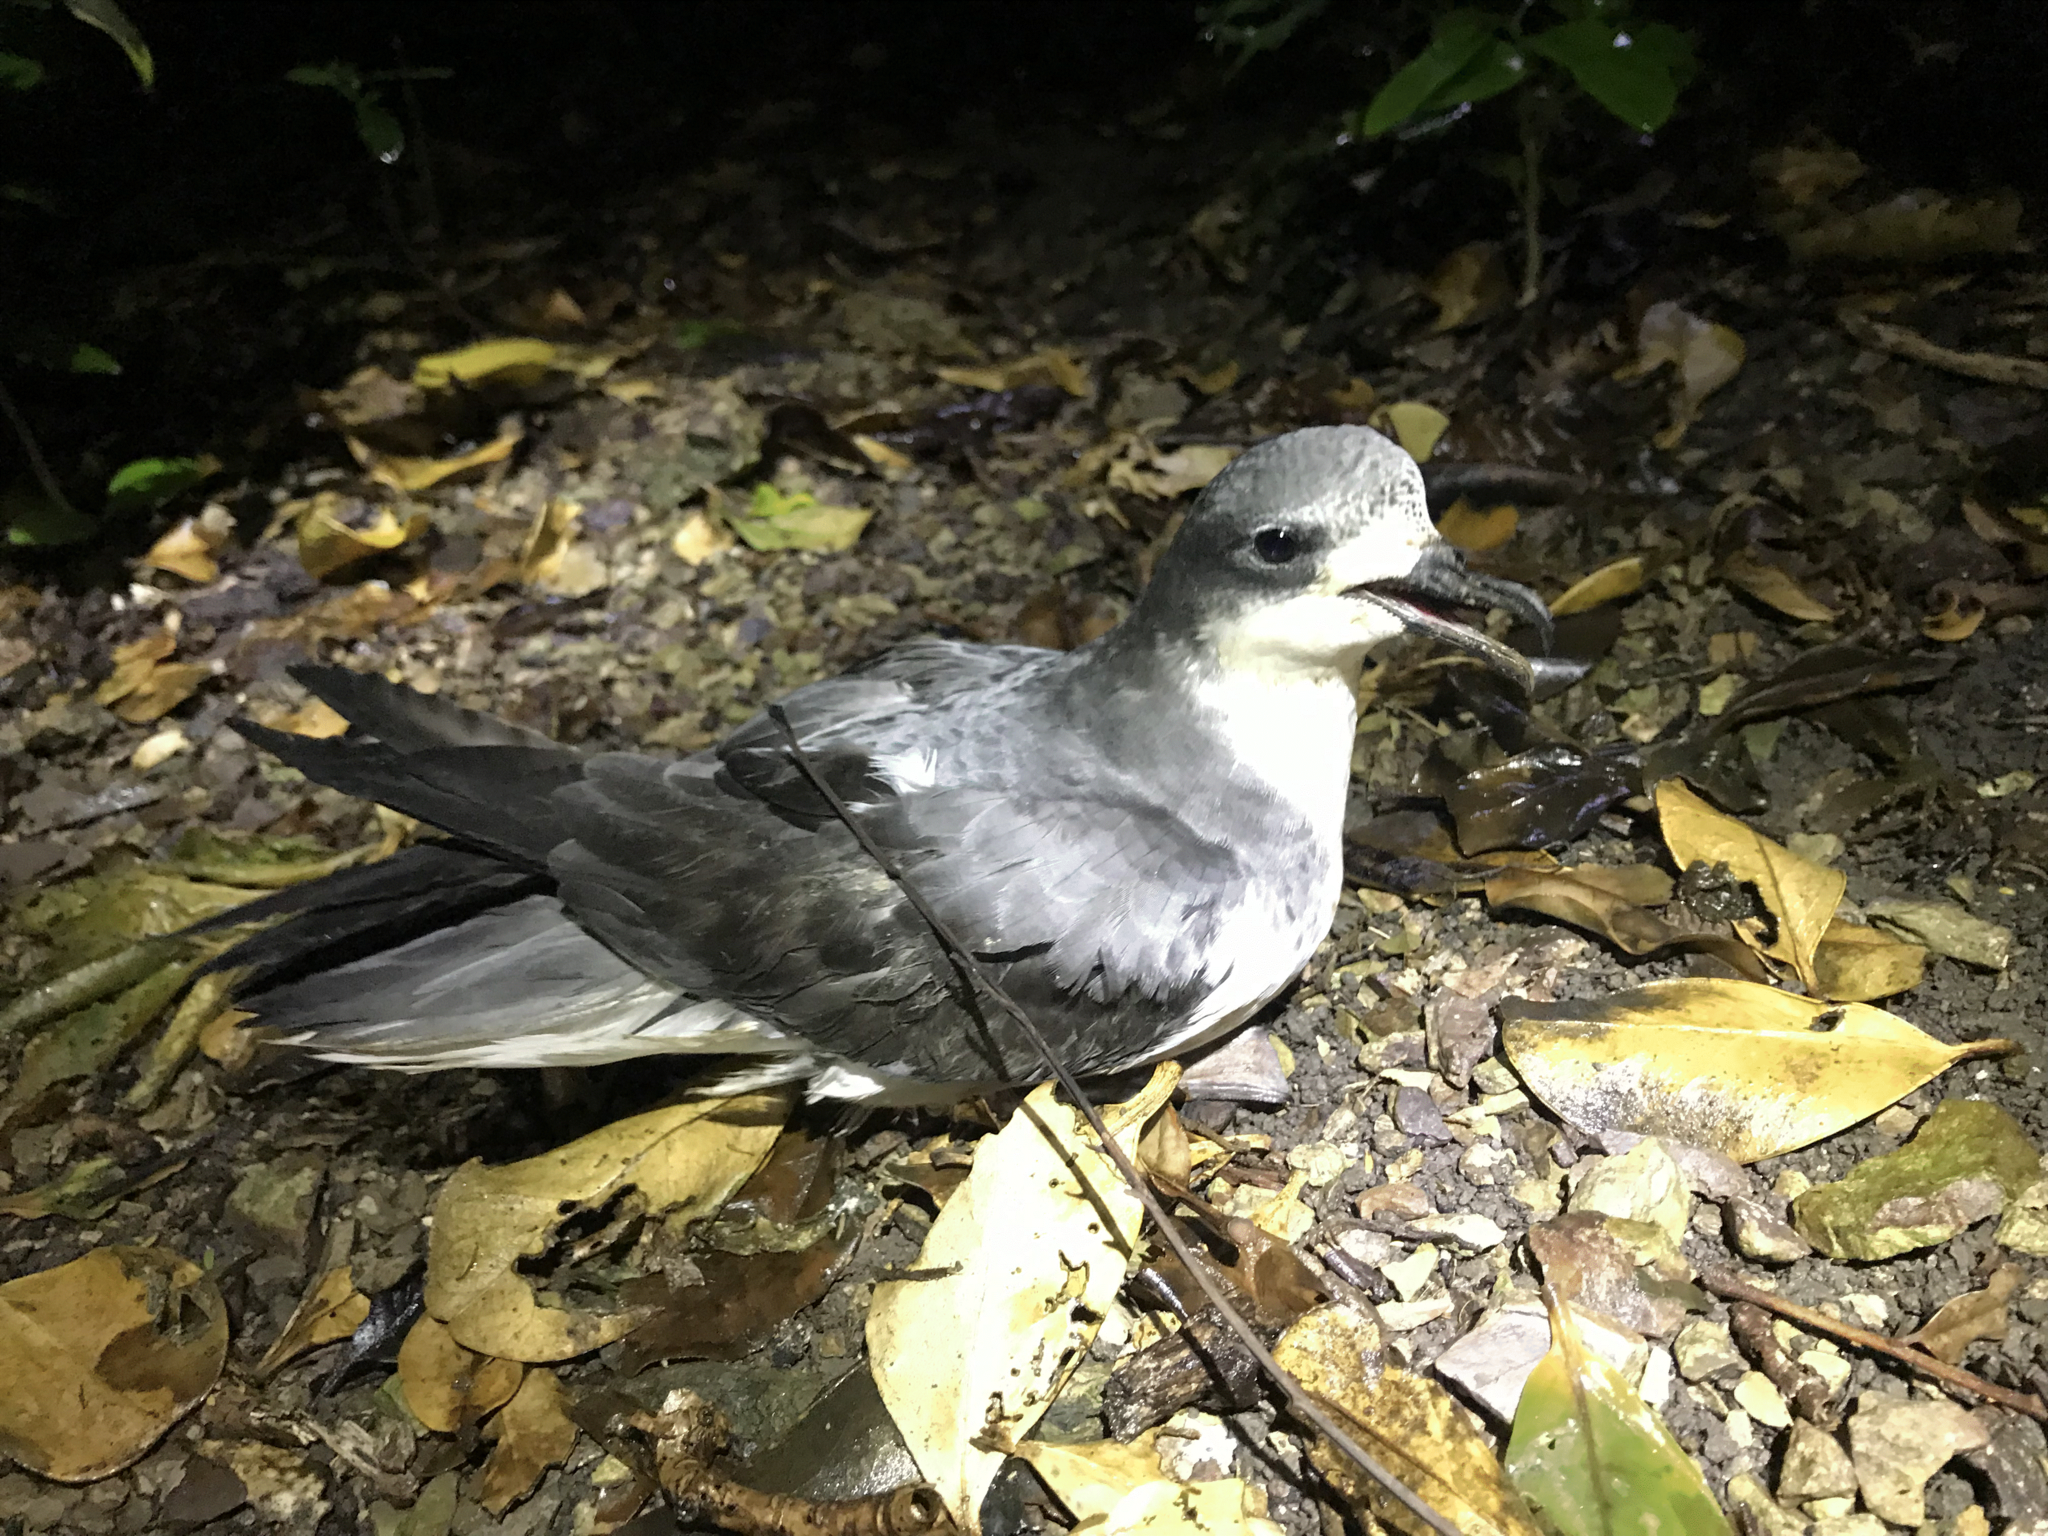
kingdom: Animalia
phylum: Chordata
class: Aves
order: Procellariiformes
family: Procellariidae
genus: Pterodroma
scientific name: Pterodroma pycrofti
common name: Pycroft's petrel
